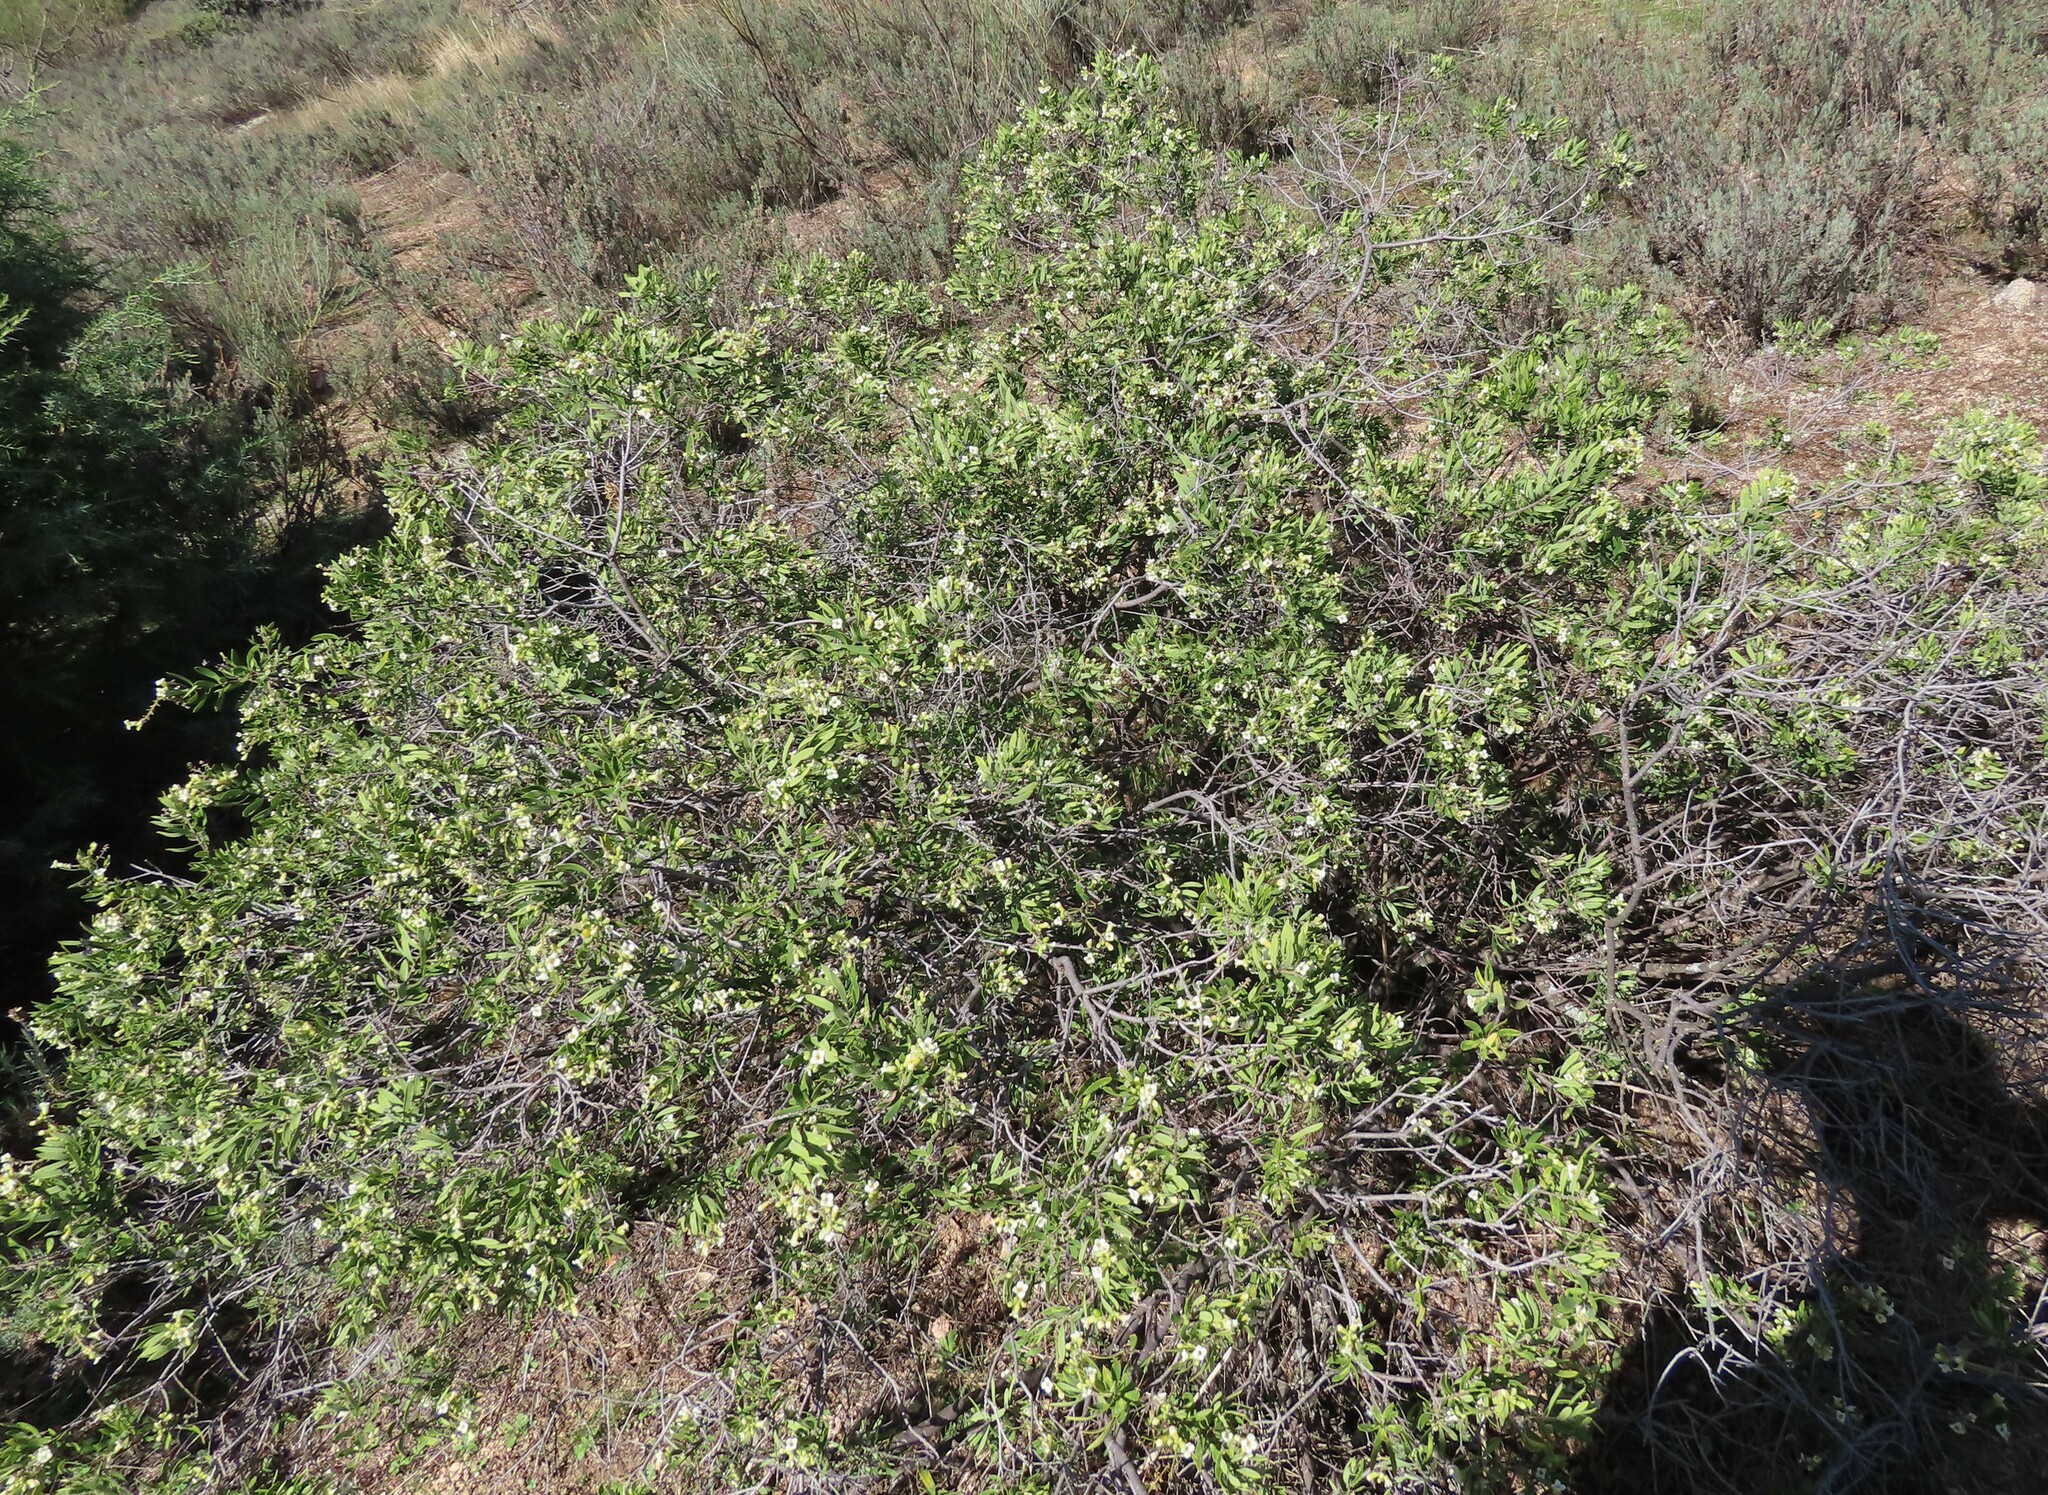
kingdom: Plantae
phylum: Tracheophyta
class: Magnoliopsida
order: Malvales
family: Thymelaeaceae
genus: Daphne
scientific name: Daphne gnidium
